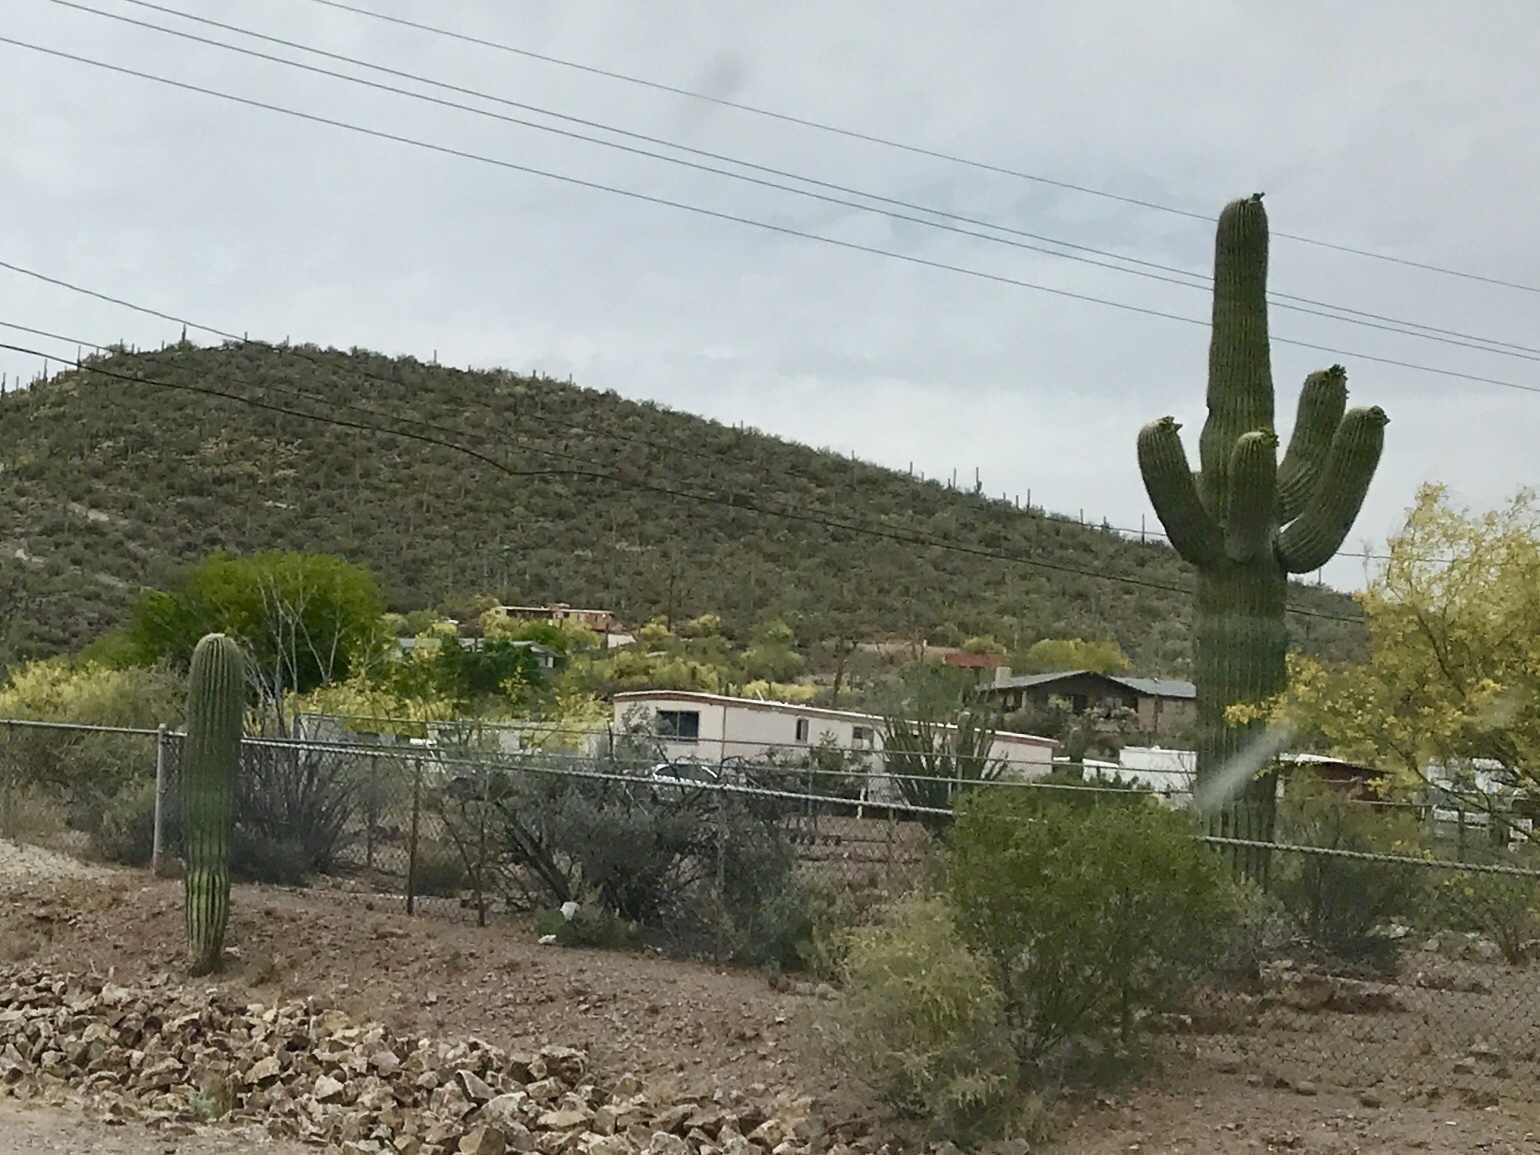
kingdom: Plantae
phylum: Tracheophyta
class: Magnoliopsida
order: Caryophyllales
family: Cactaceae
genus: Carnegiea
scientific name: Carnegiea gigantea
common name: Saguaro
